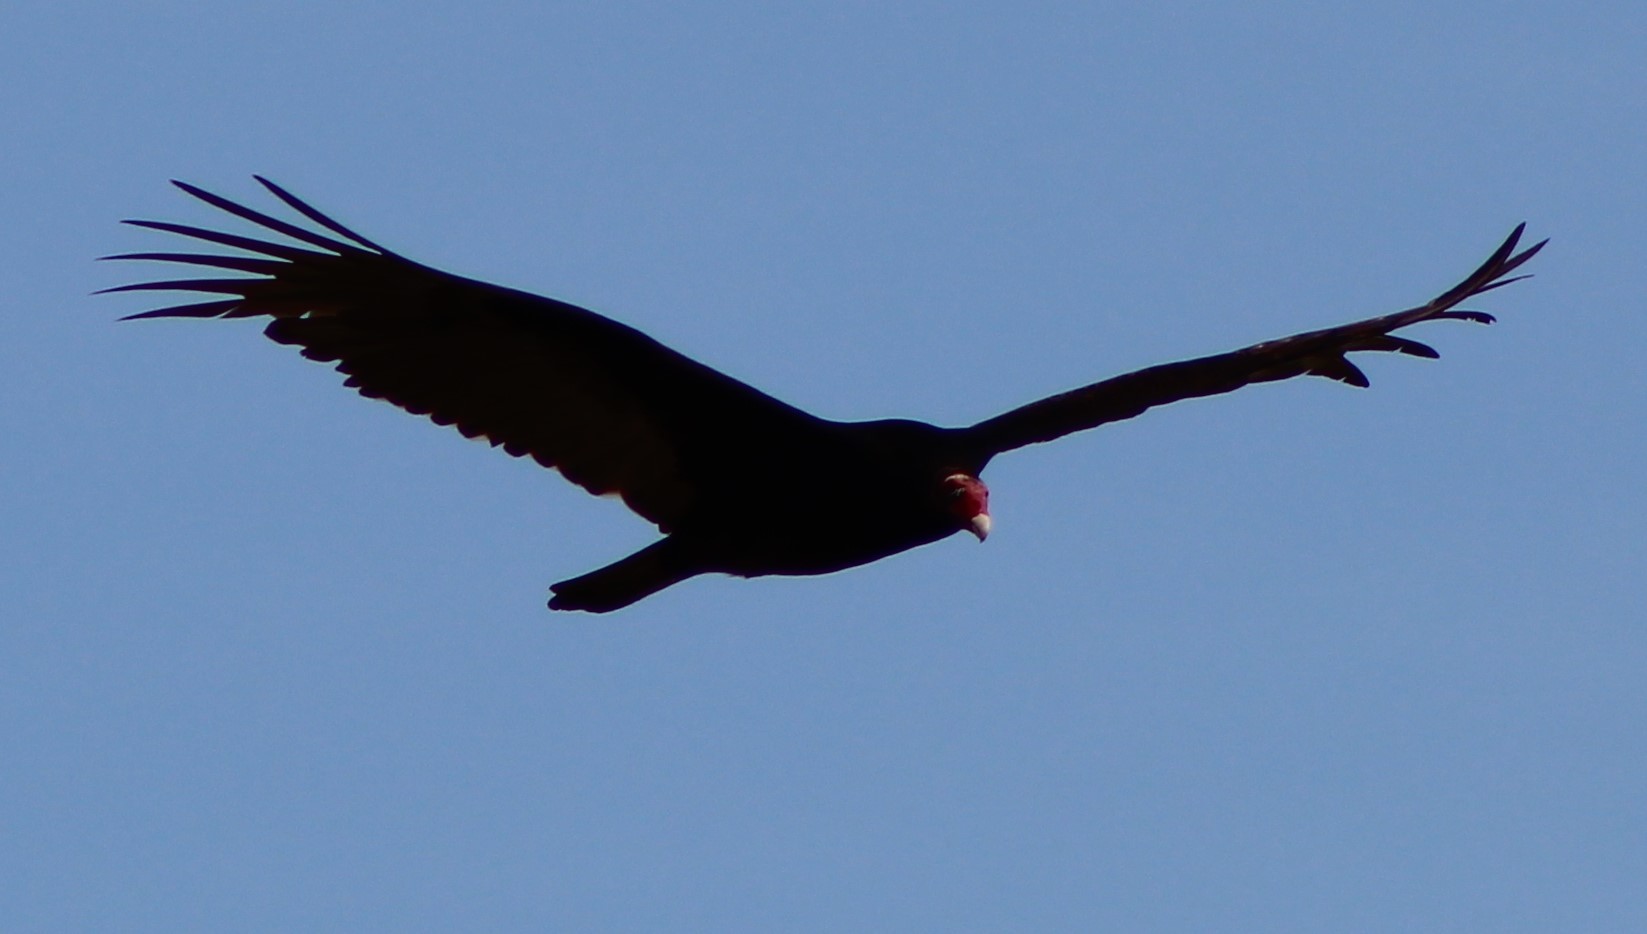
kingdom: Animalia
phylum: Chordata
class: Aves
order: Accipitriformes
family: Cathartidae
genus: Cathartes
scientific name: Cathartes aura
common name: Turkey vulture
